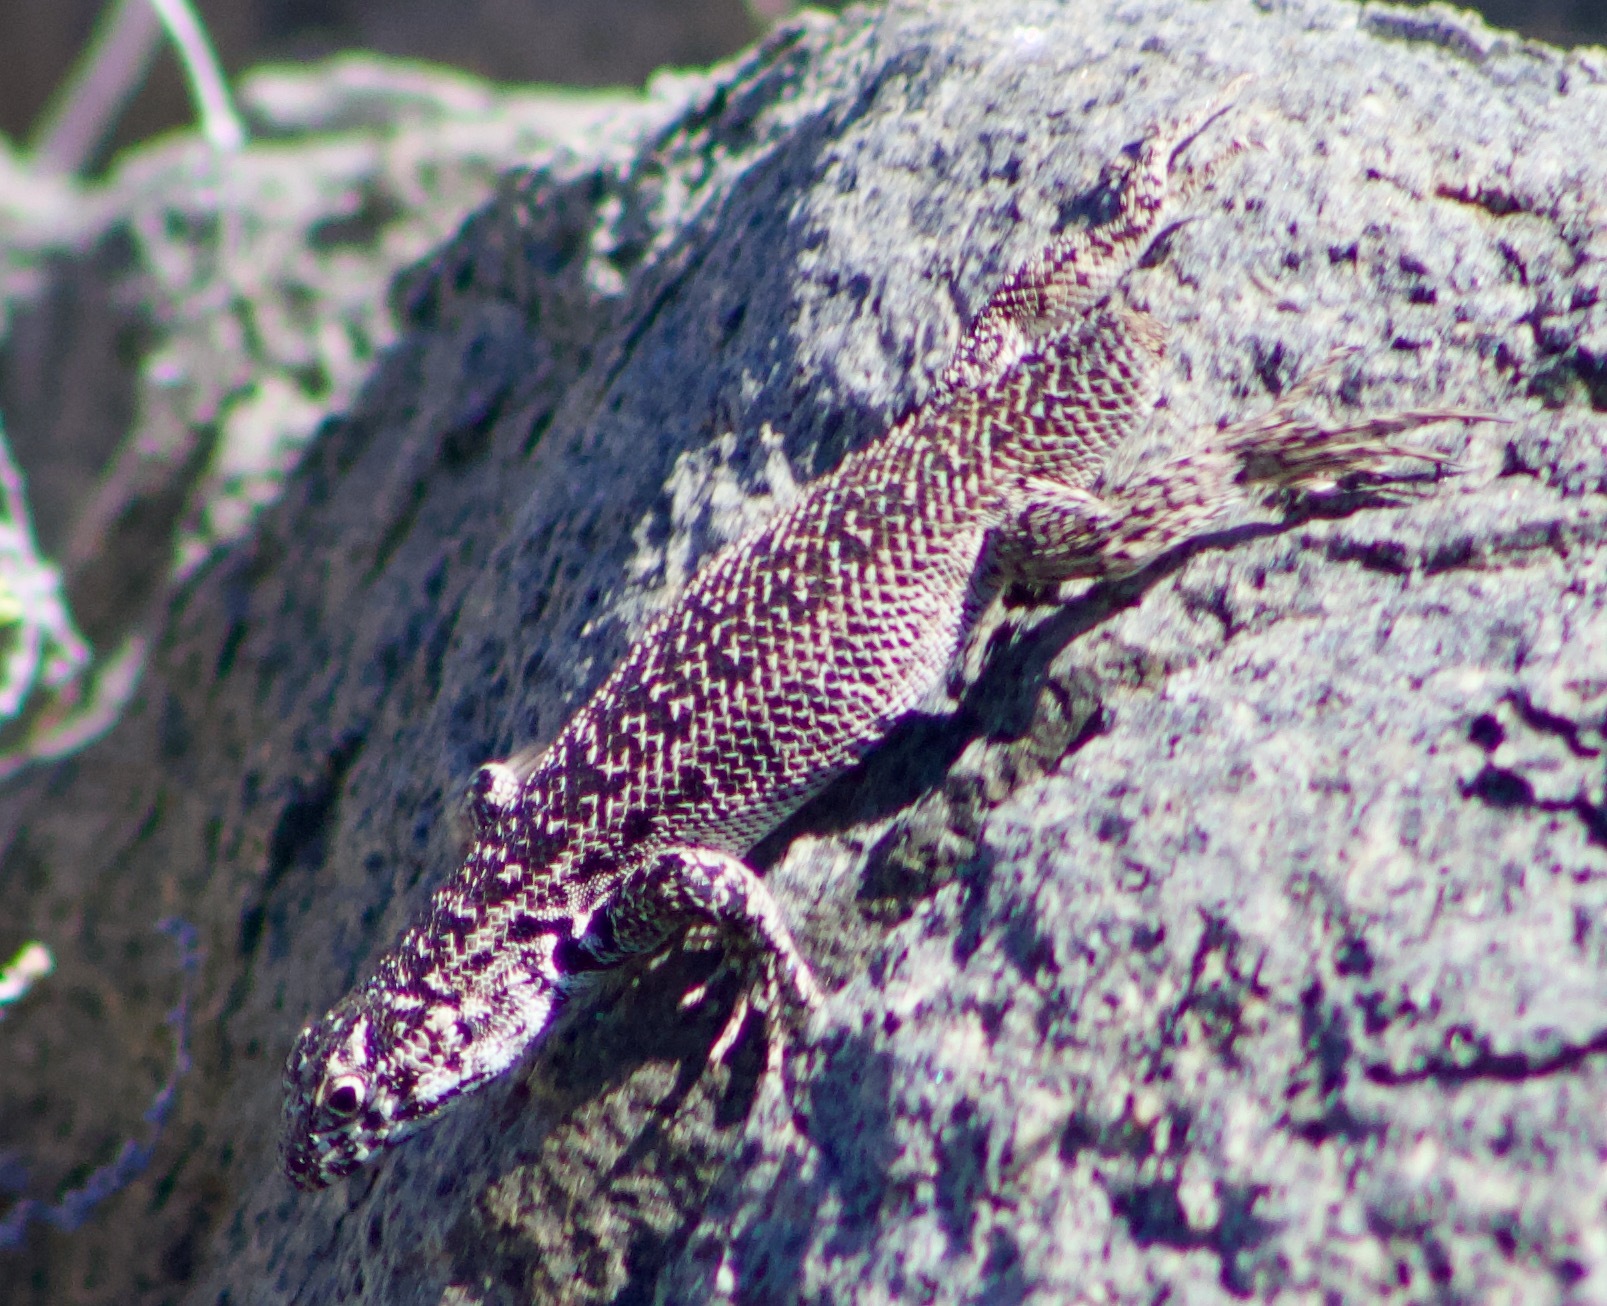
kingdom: Animalia
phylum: Chordata
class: Squamata
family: Liolaemidae
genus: Liolaemus
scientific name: Liolaemus zapallarensis
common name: Zapallaren tree iguana
